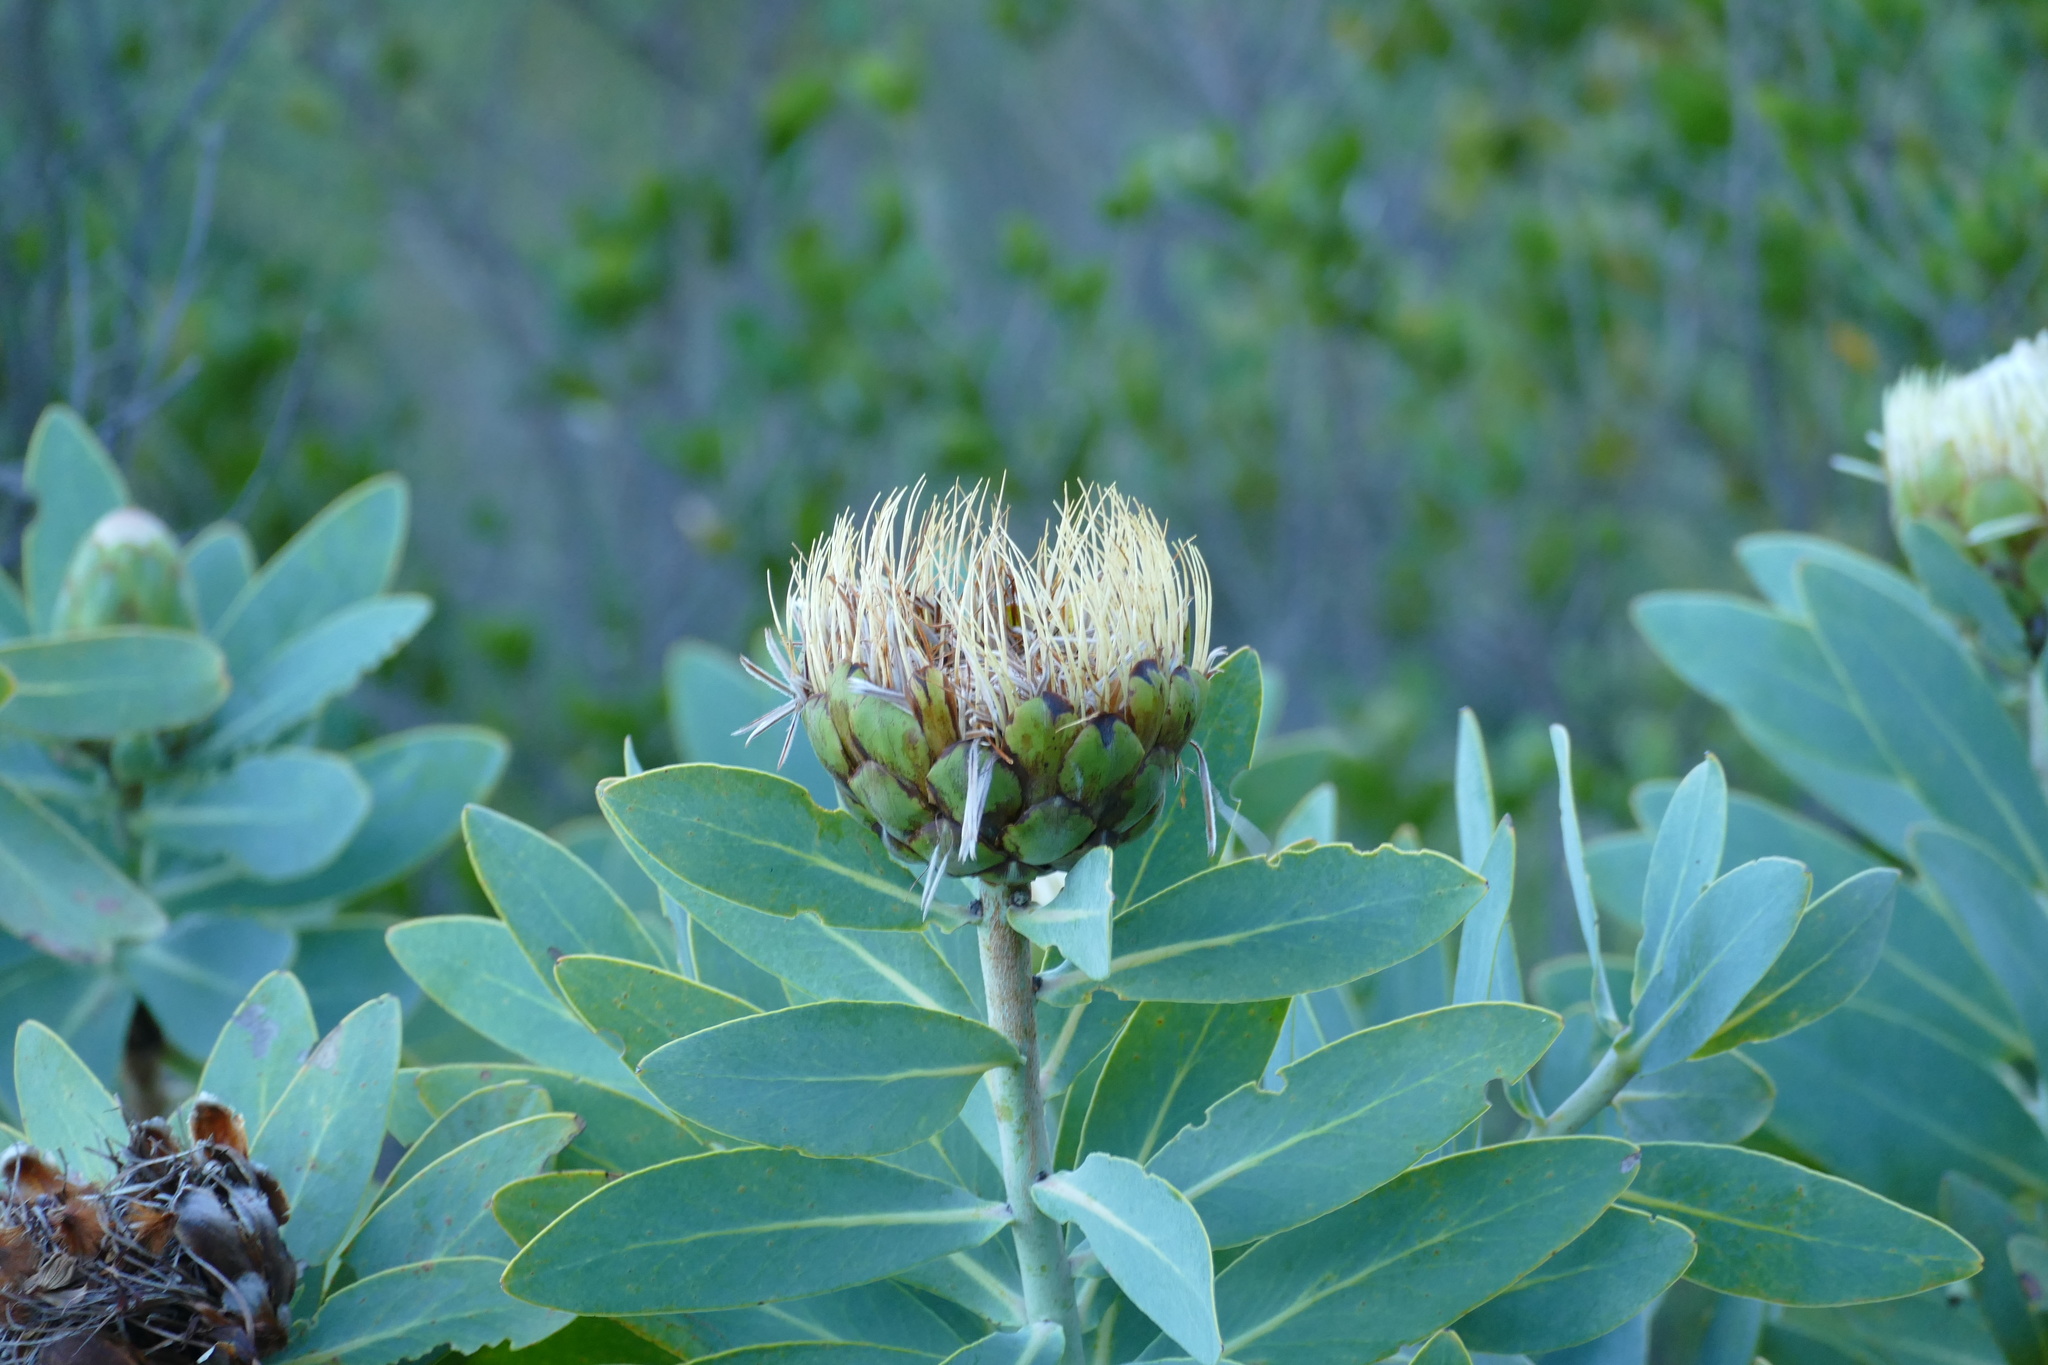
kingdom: Plantae
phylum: Tracheophyta
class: Magnoliopsida
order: Proteales
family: Proteaceae
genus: Protea
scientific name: Protea nitida
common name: Tree protea
